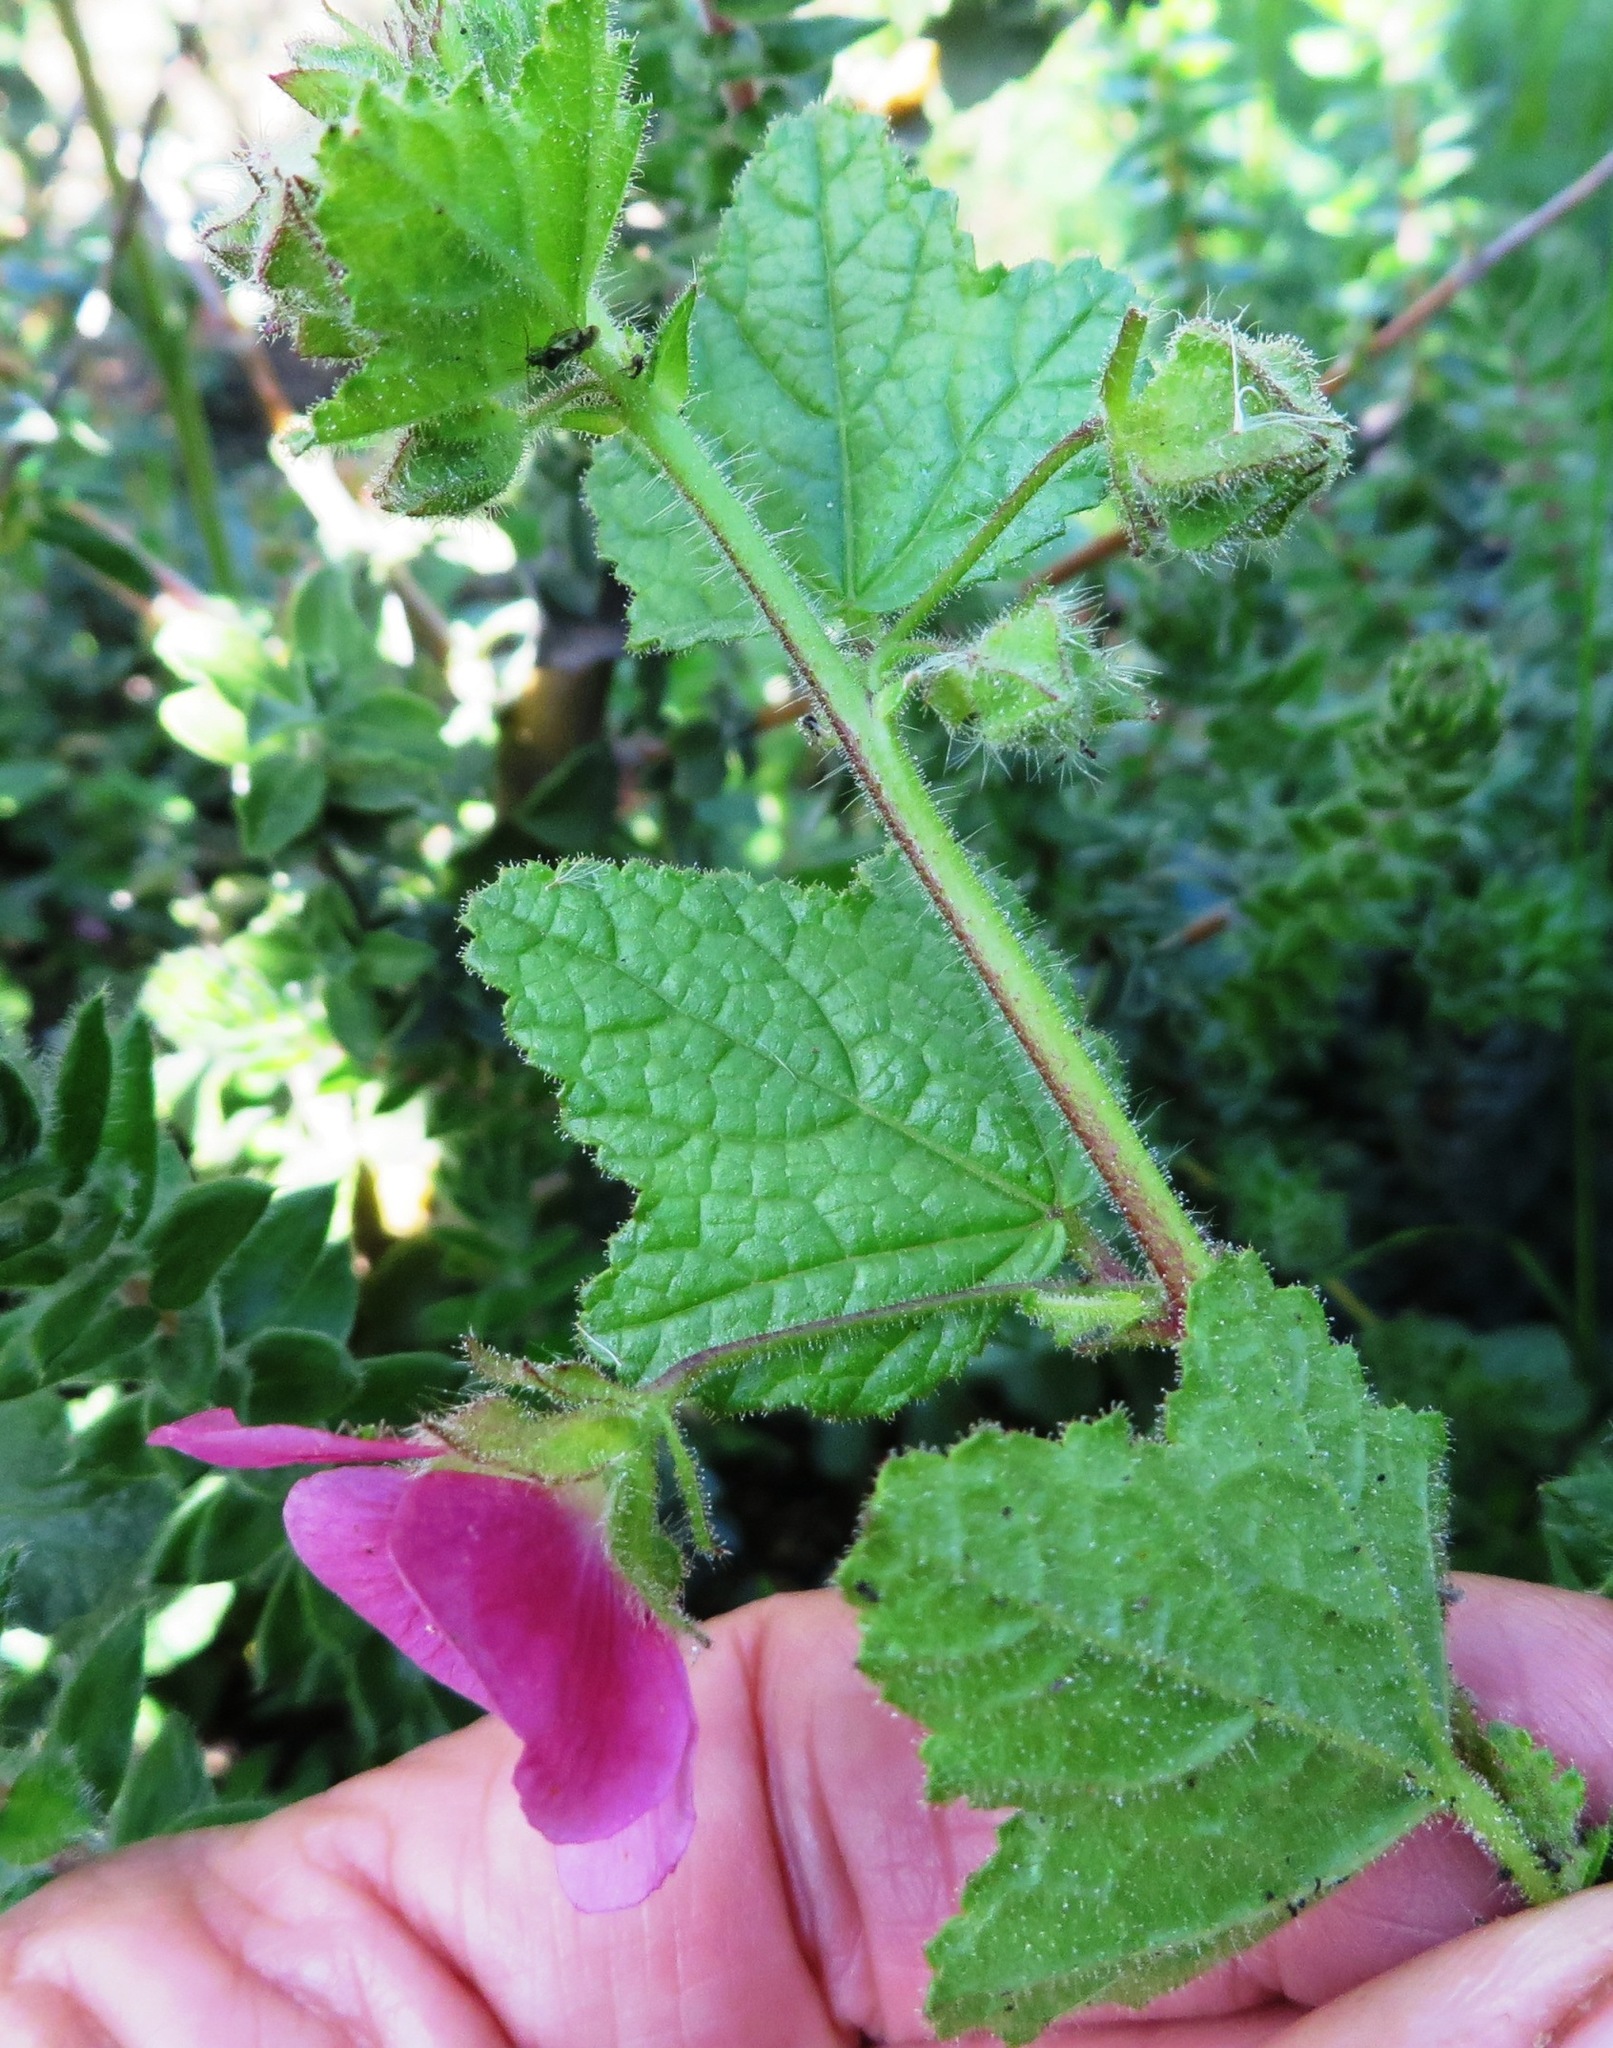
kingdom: Plantae
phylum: Tracheophyta
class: Magnoliopsida
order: Malvales
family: Malvaceae
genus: Anisodontea
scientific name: Anisodontea scabrosa
